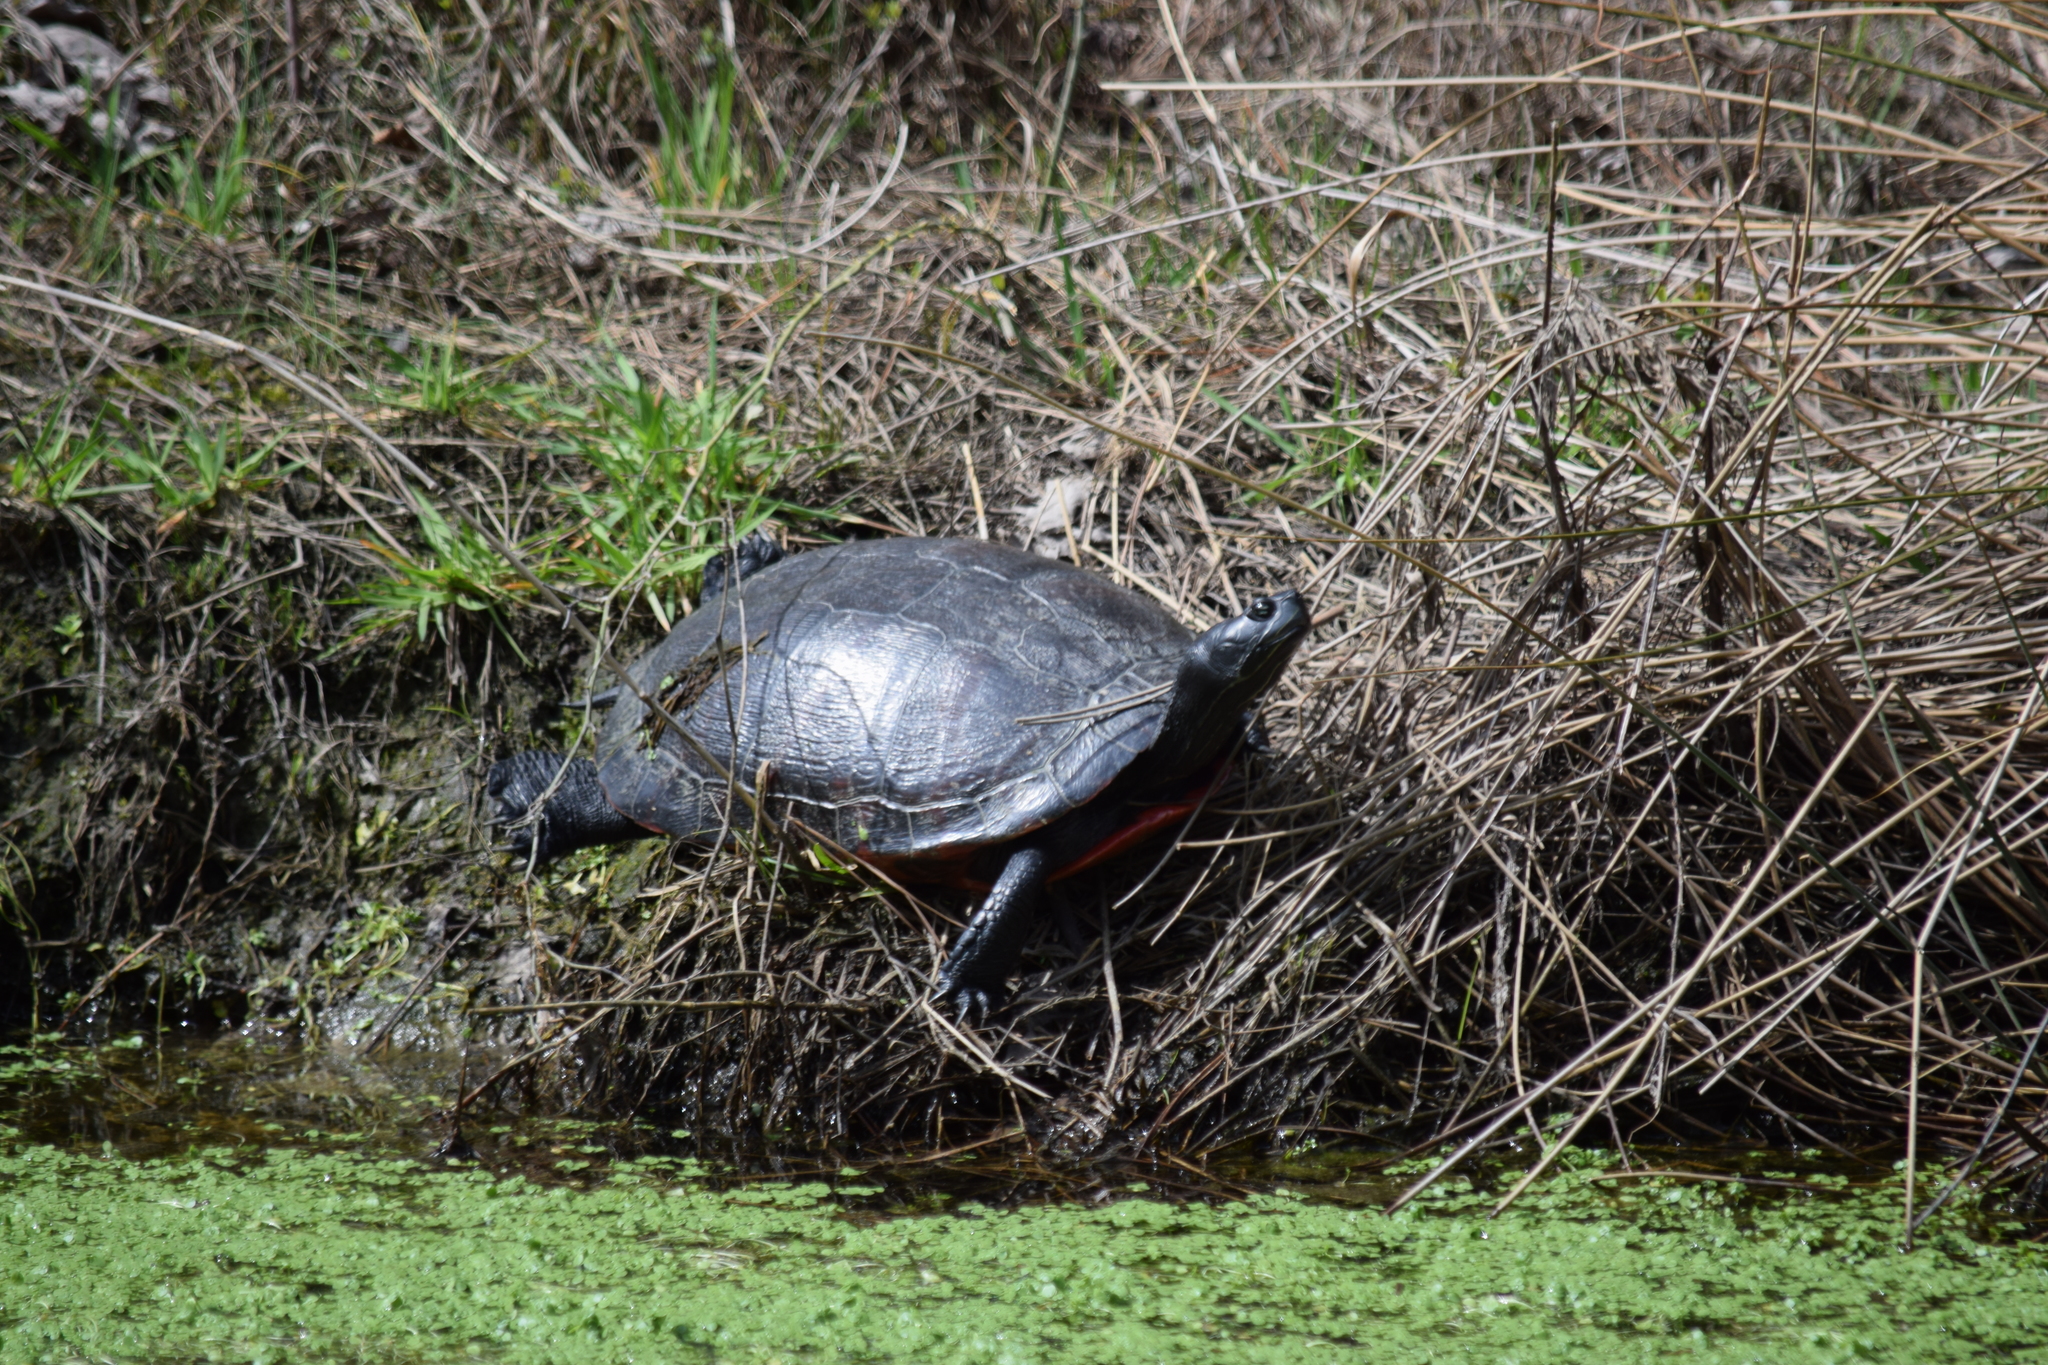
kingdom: Animalia
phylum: Chordata
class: Testudines
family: Emydidae
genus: Pseudemys
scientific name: Pseudemys rubriventris
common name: American red-bellied turtle
